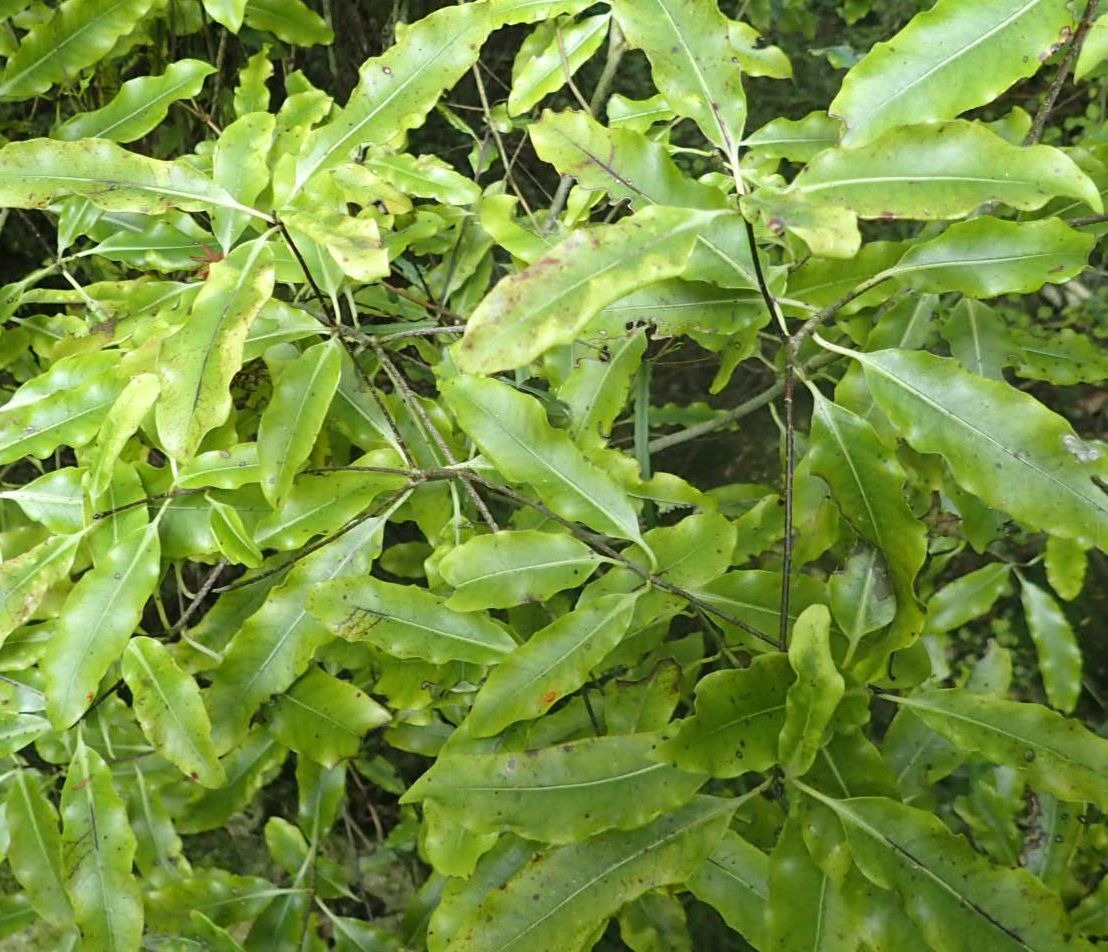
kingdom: Plantae
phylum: Tracheophyta
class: Magnoliopsida
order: Apiales
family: Pittosporaceae
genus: Pittosporum
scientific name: Pittosporum eugenioides
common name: Lemonwood
